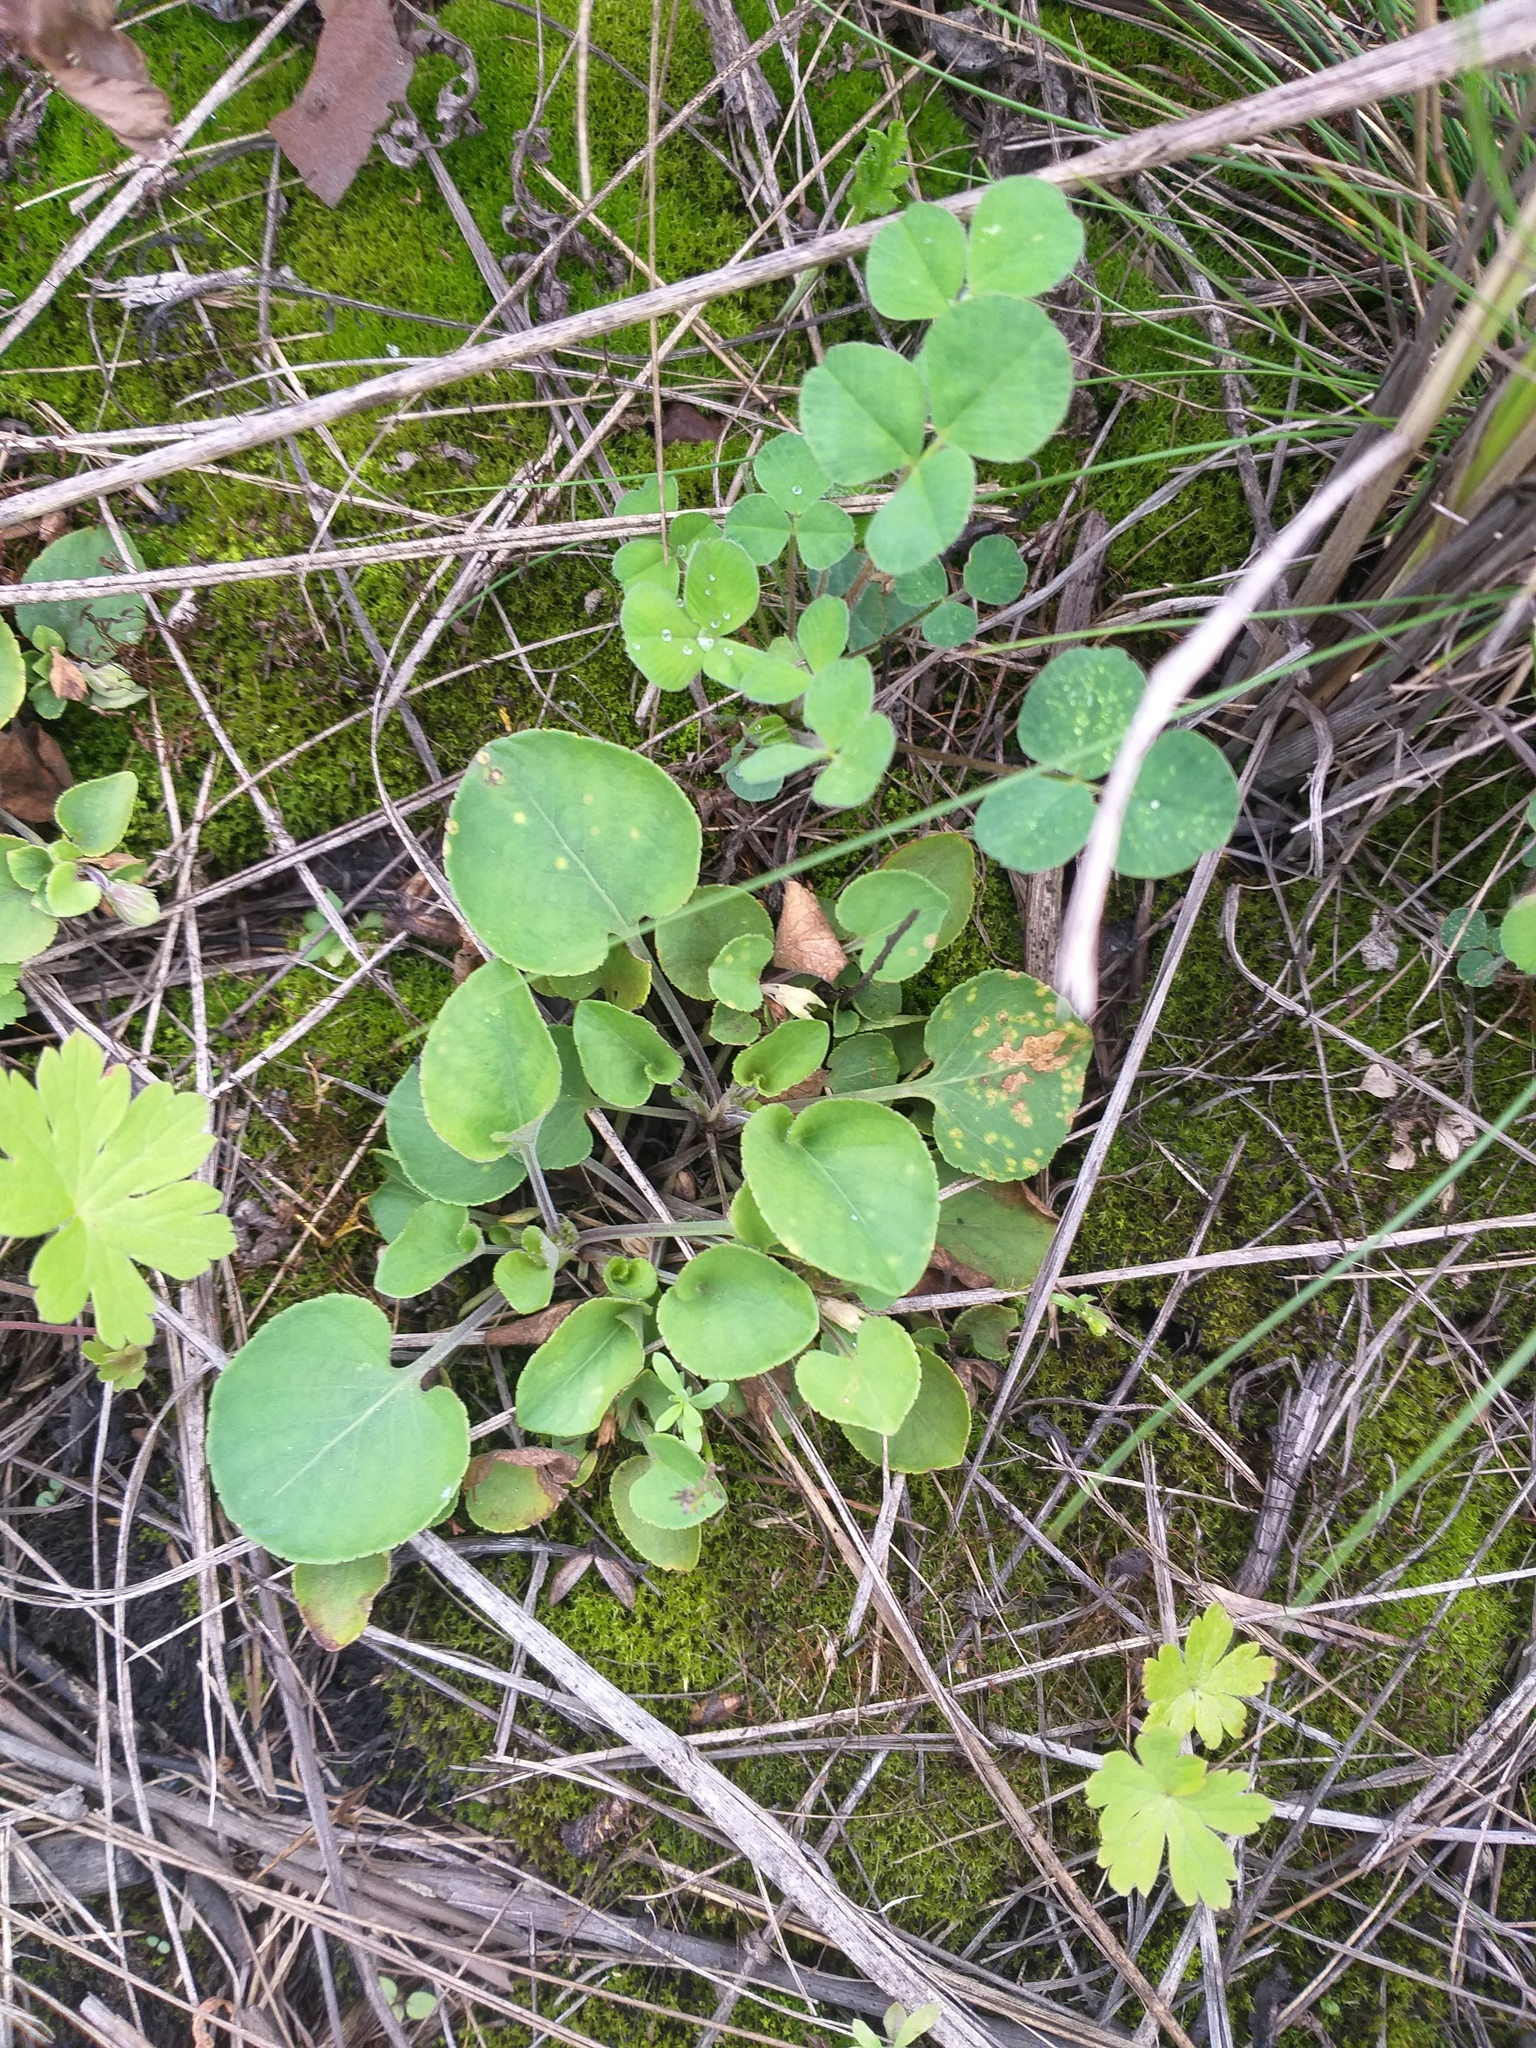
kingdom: Plantae
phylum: Tracheophyta
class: Magnoliopsida
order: Malpighiales
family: Violaceae
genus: Viola
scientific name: Viola rupestris
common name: Teesdale violet
